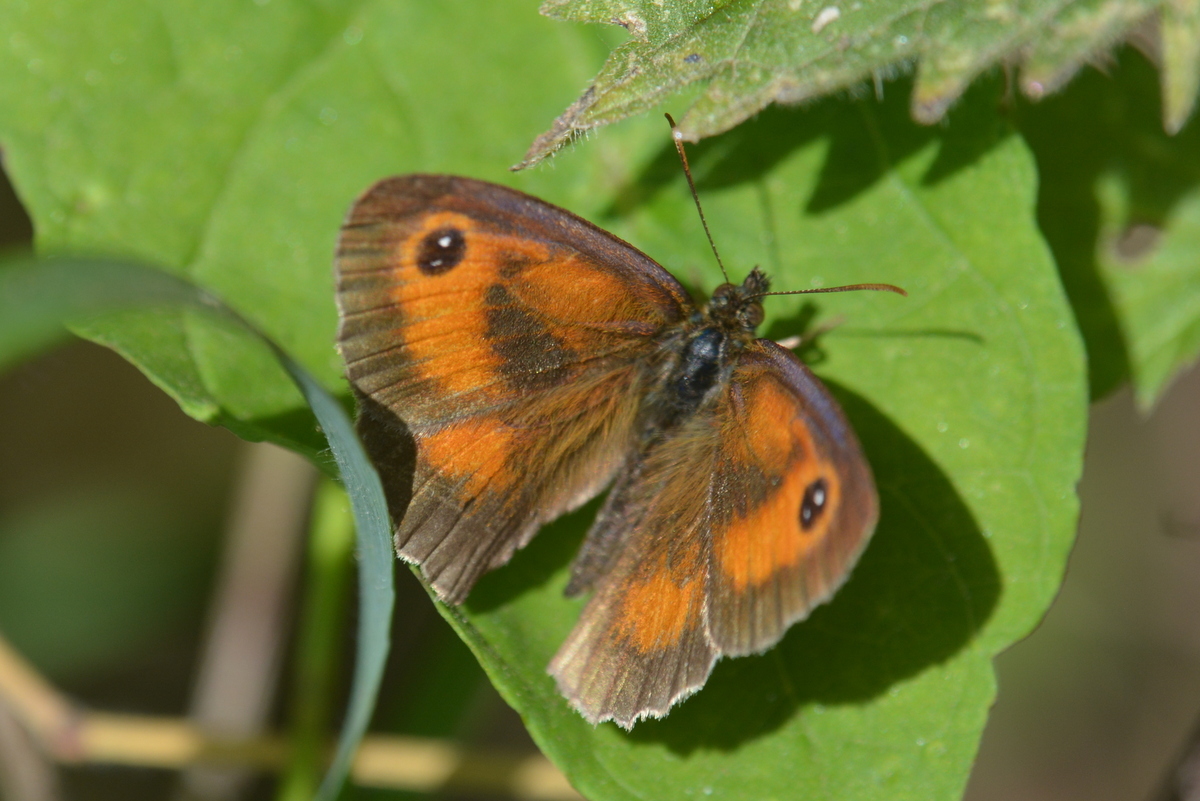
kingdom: Animalia
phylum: Arthropoda
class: Insecta
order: Lepidoptera
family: Nymphalidae
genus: Pyronia
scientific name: Pyronia tithonus
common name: Gatekeeper
